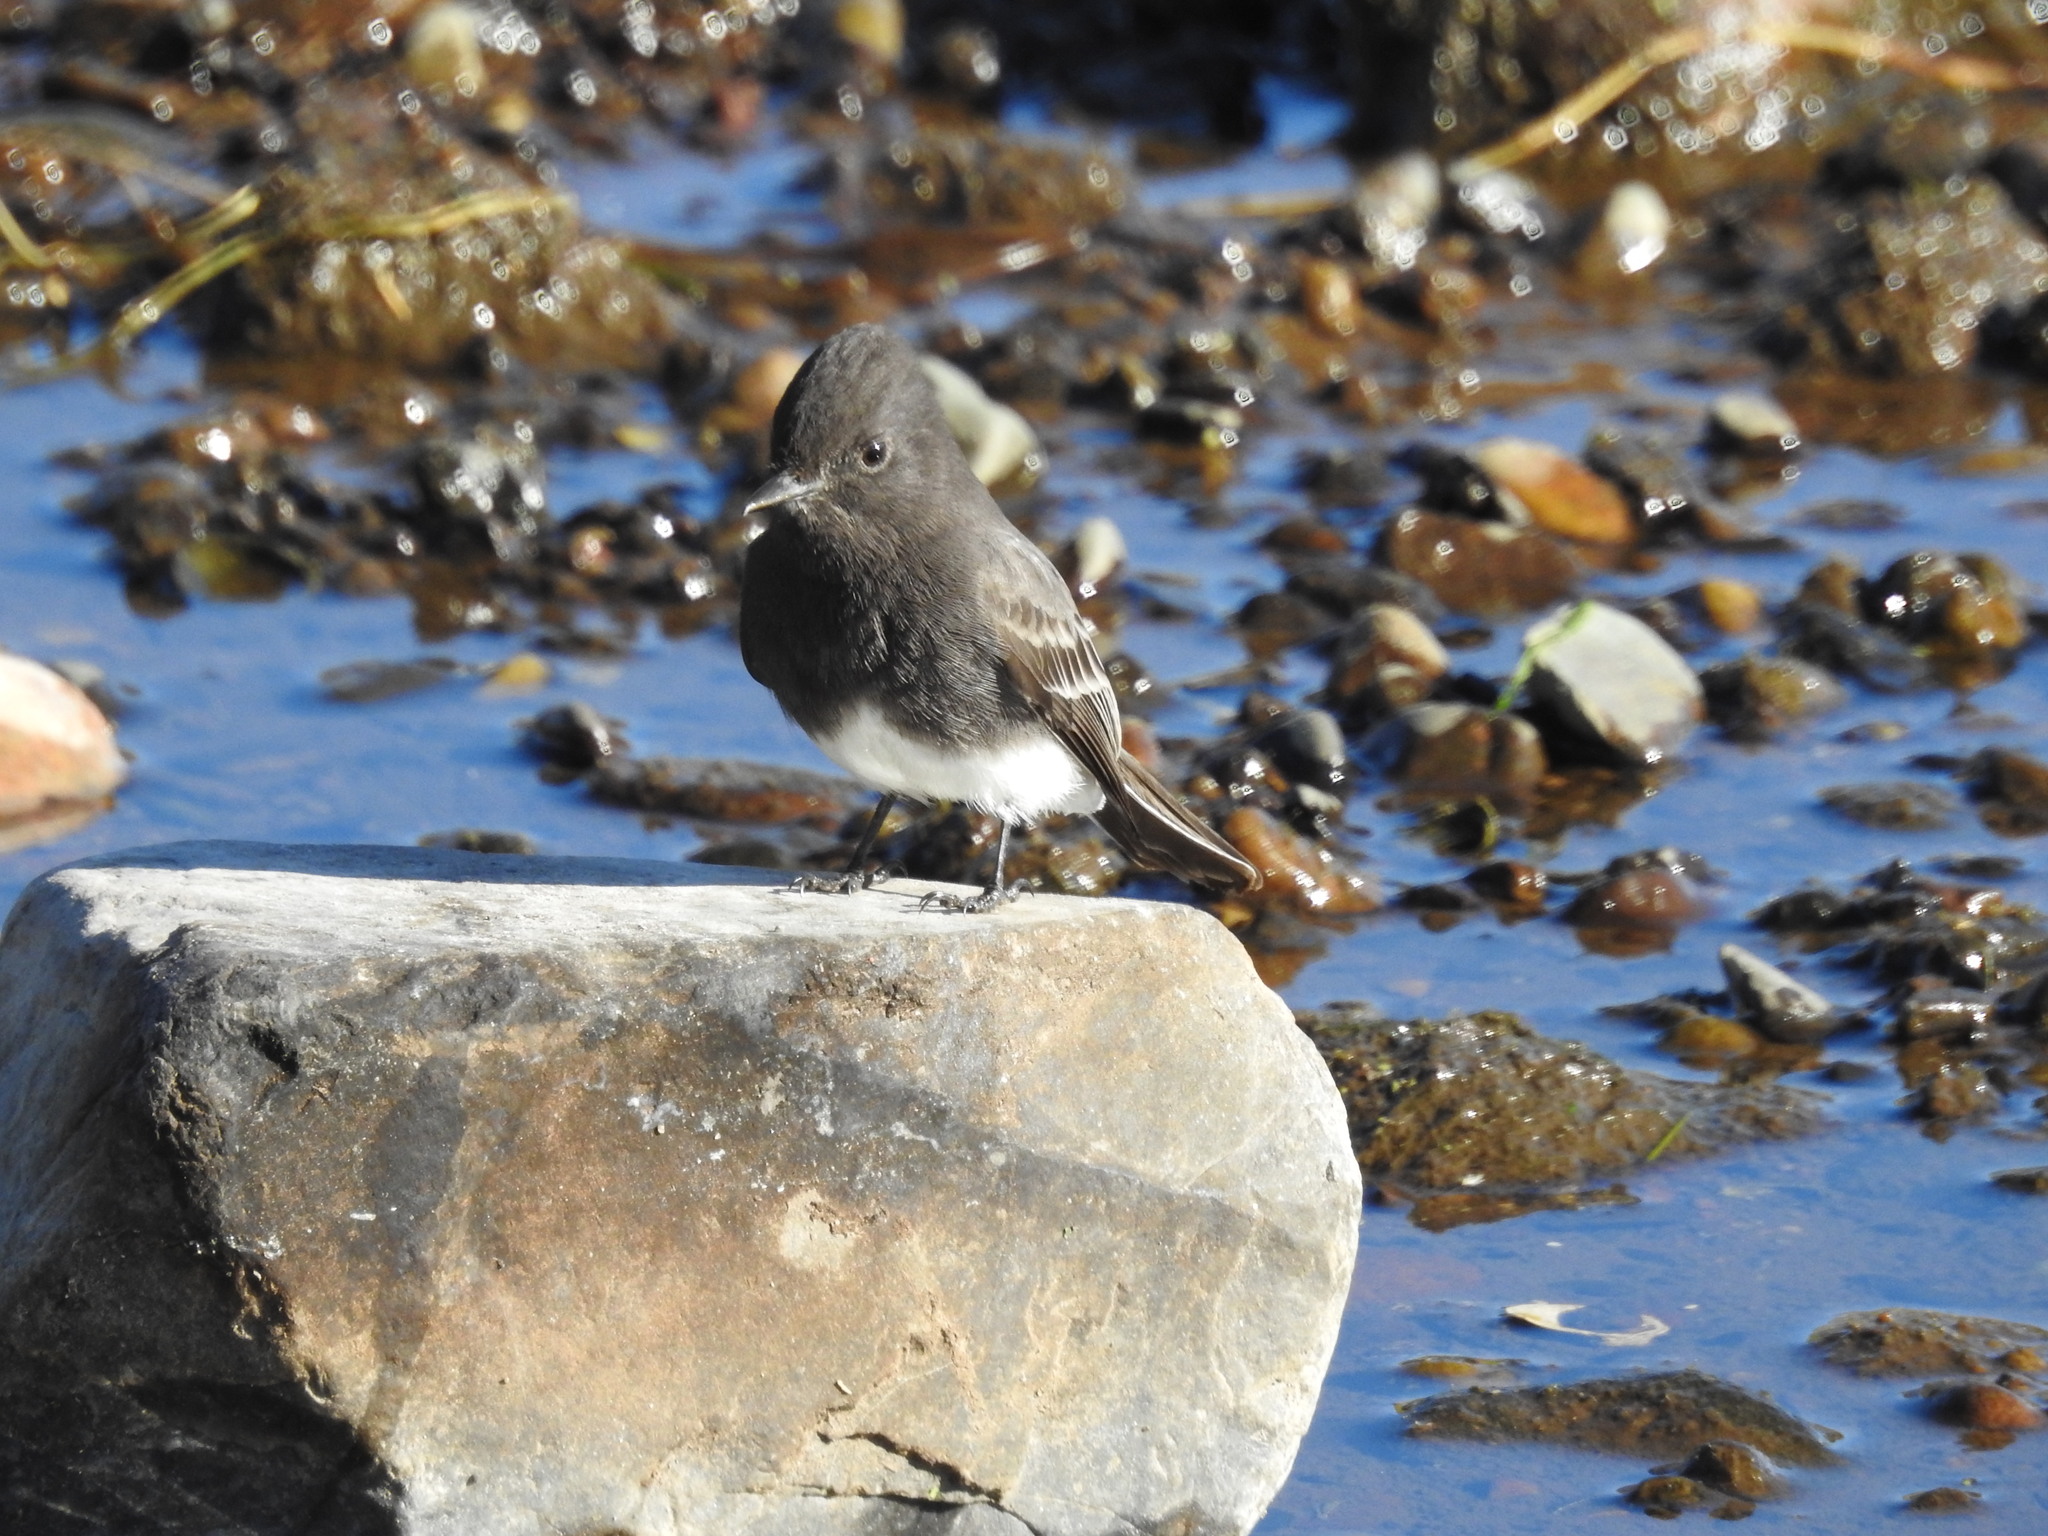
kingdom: Animalia
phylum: Chordata
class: Aves
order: Passeriformes
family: Tyrannidae
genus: Sayornis
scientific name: Sayornis nigricans
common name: Black phoebe
